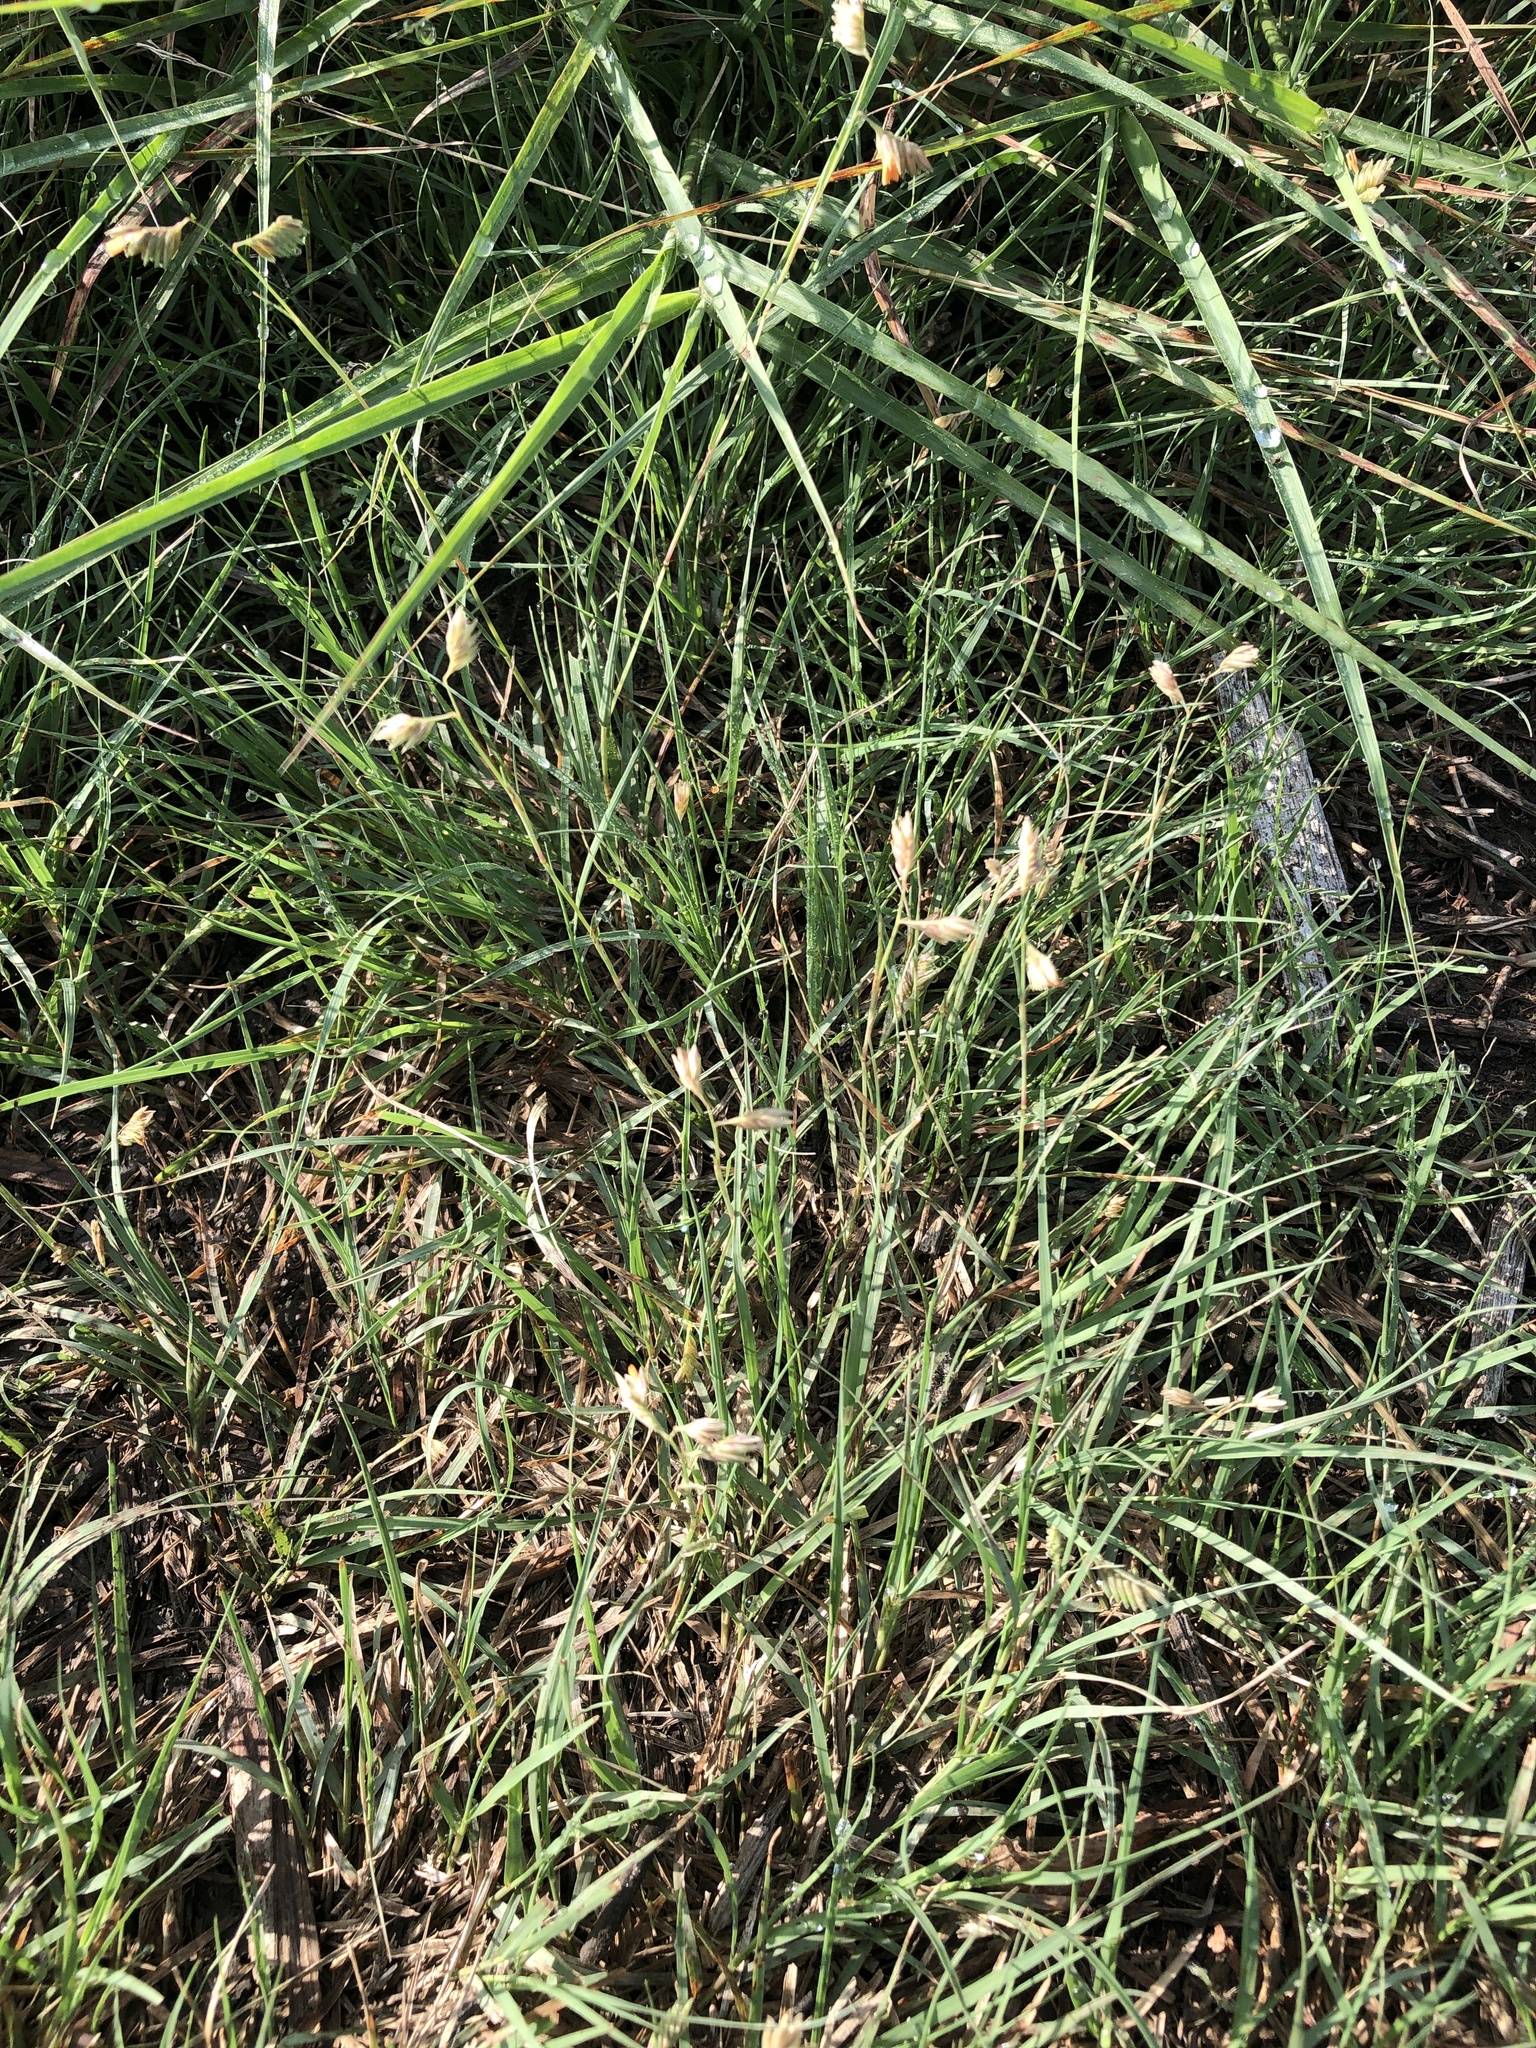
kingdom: Plantae
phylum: Tracheophyta
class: Liliopsida
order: Poales
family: Poaceae
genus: Bouteloua
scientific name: Bouteloua dactyloides
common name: Buffalo grass
